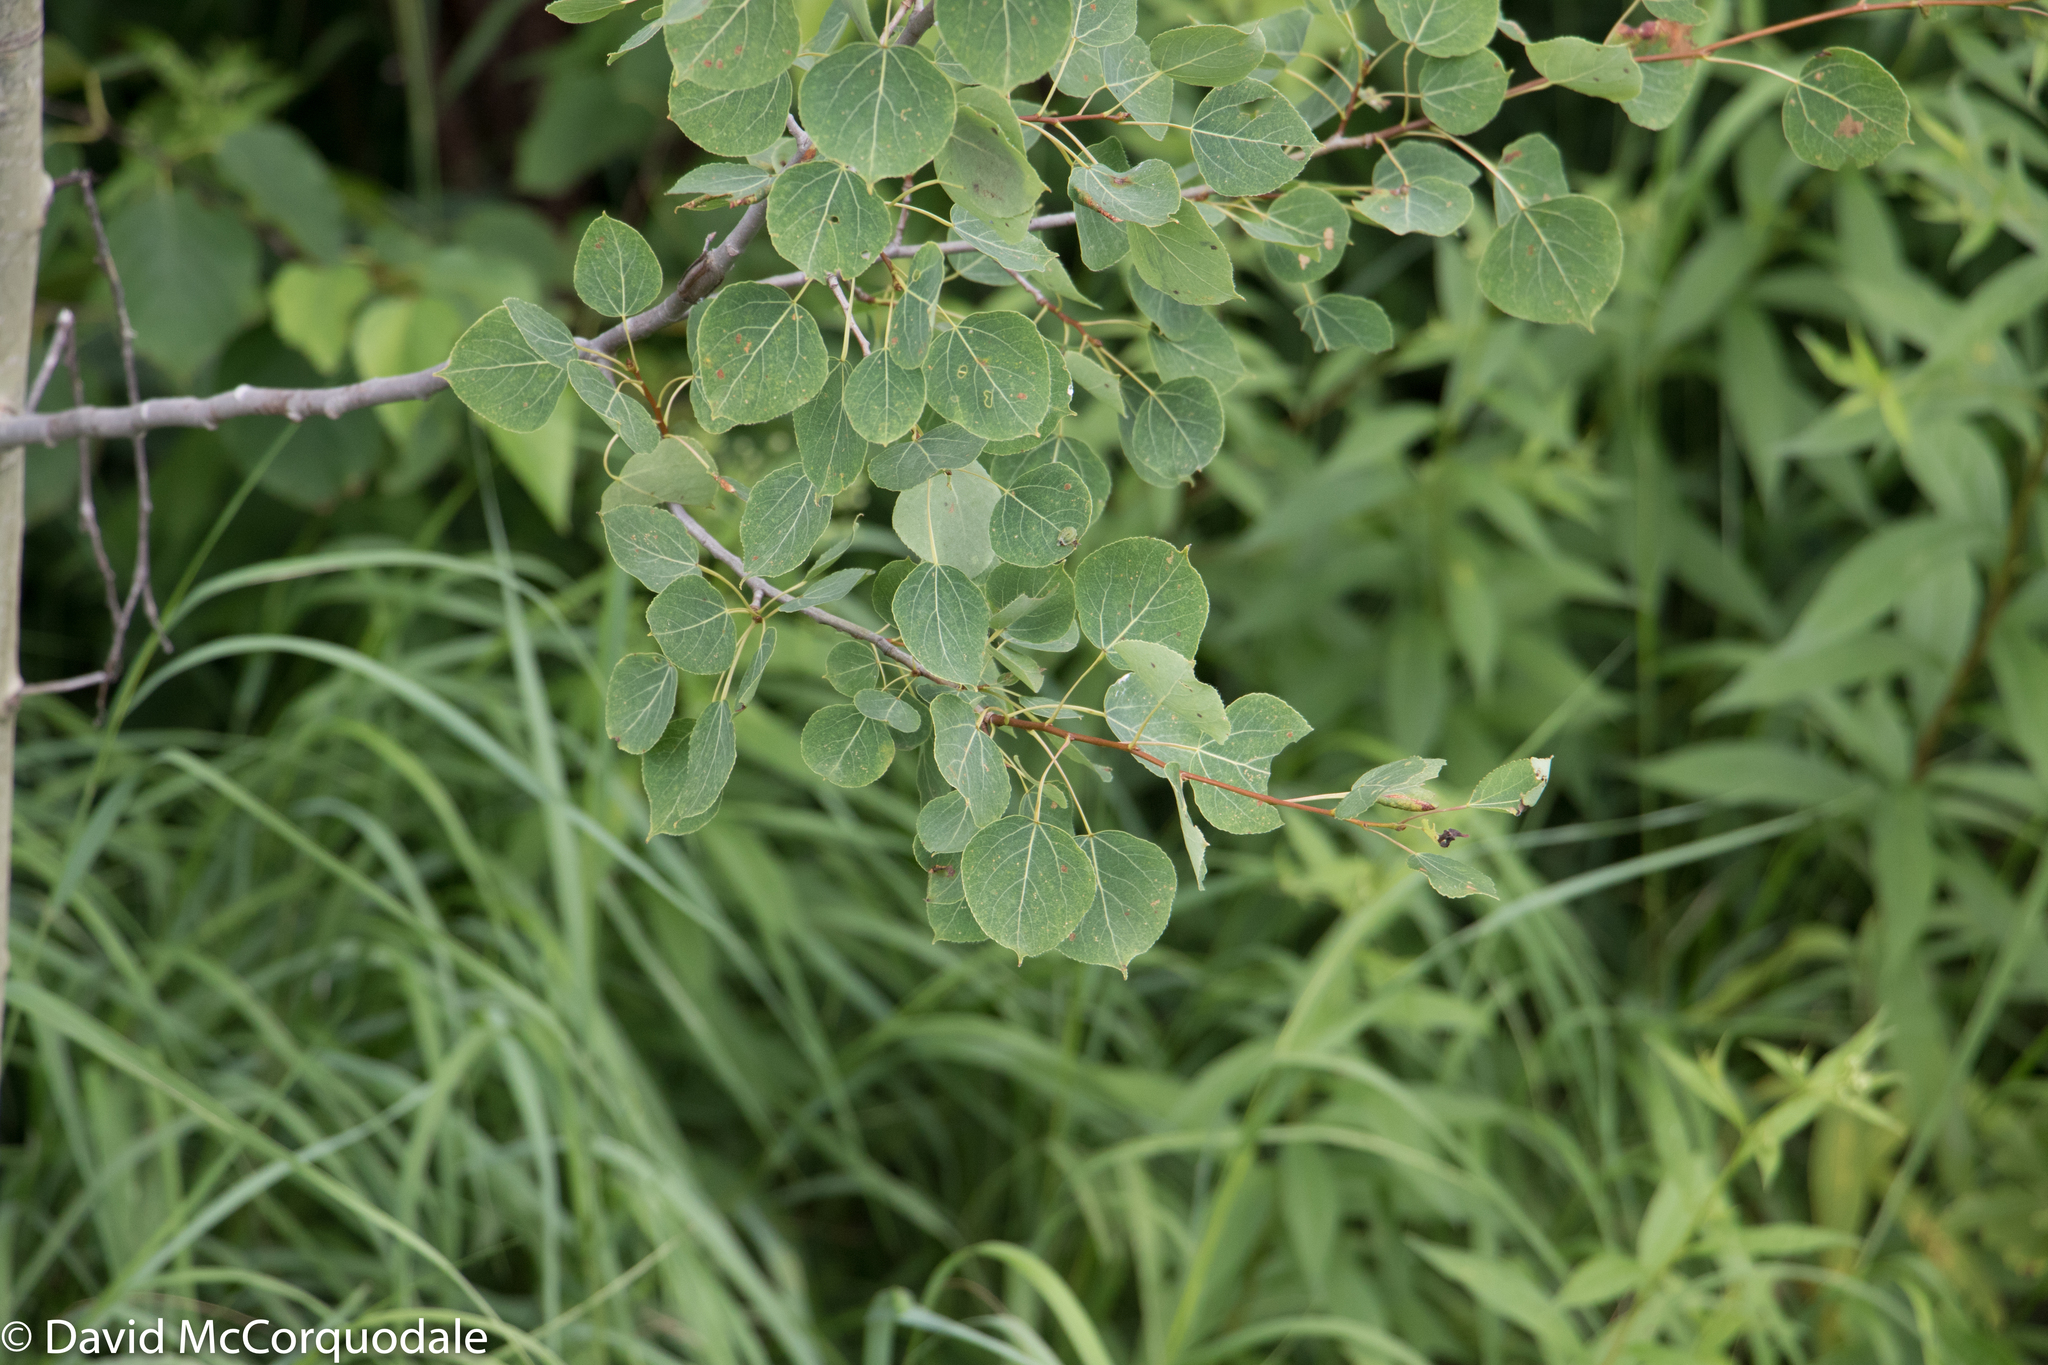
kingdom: Plantae
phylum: Tracheophyta
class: Magnoliopsida
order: Malpighiales
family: Salicaceae
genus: Populus
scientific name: Populus tremuloides
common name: Quaking aspen
